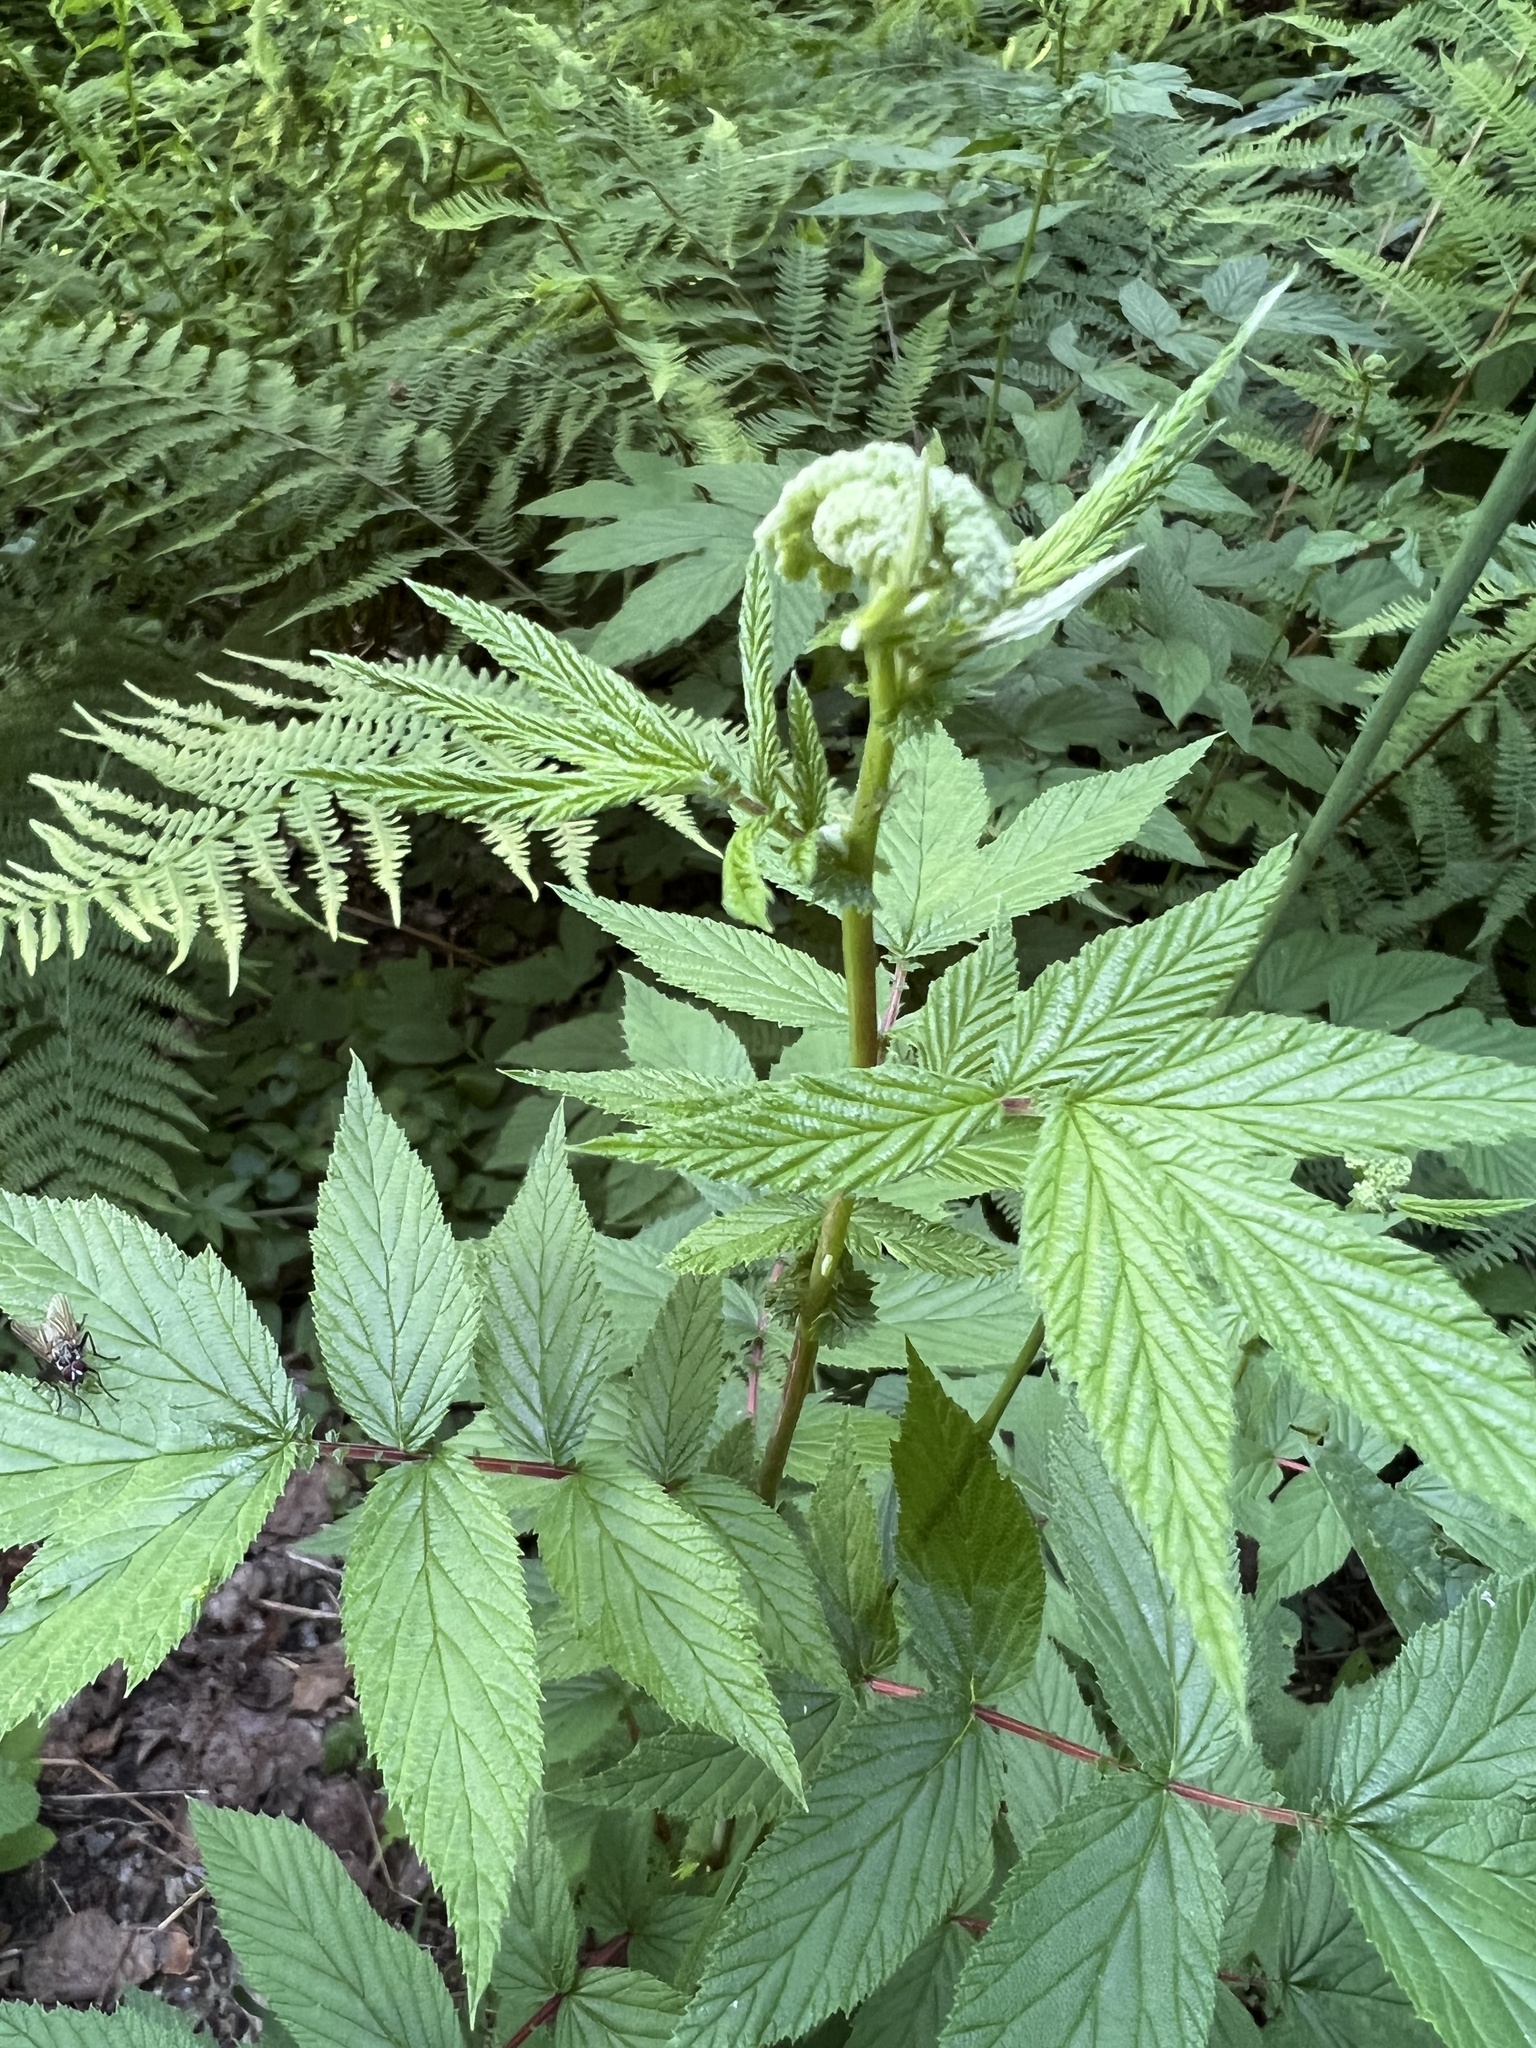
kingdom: Plantae
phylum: Tracheophyta
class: Magnoliopsida
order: Rosales
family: Rosaceae
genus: Filipendula
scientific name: Filipendula ulmaria
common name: Meadowsweet
